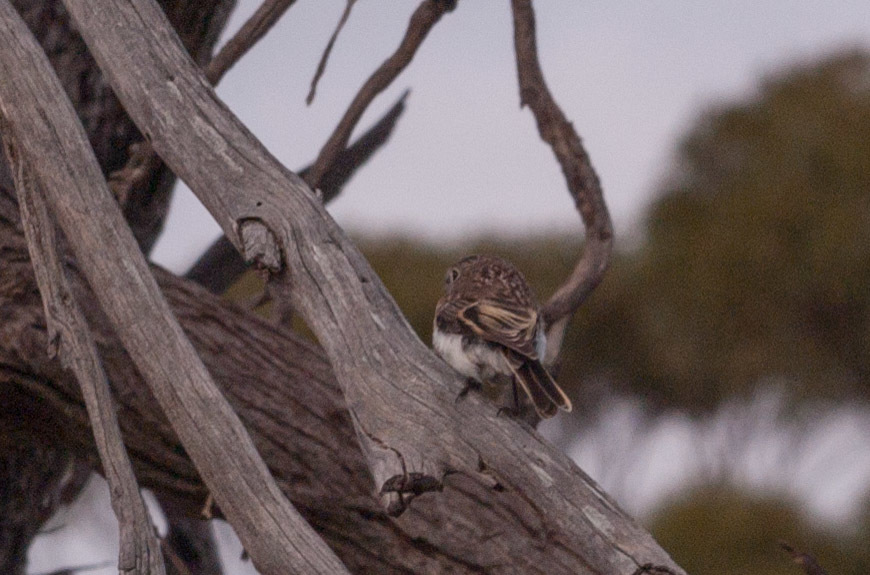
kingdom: Animalia
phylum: Chordata
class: Aves
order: Passeriformes
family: Petroicidae
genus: Petroica
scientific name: Petroica goodenovii
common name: Red-capped robin
